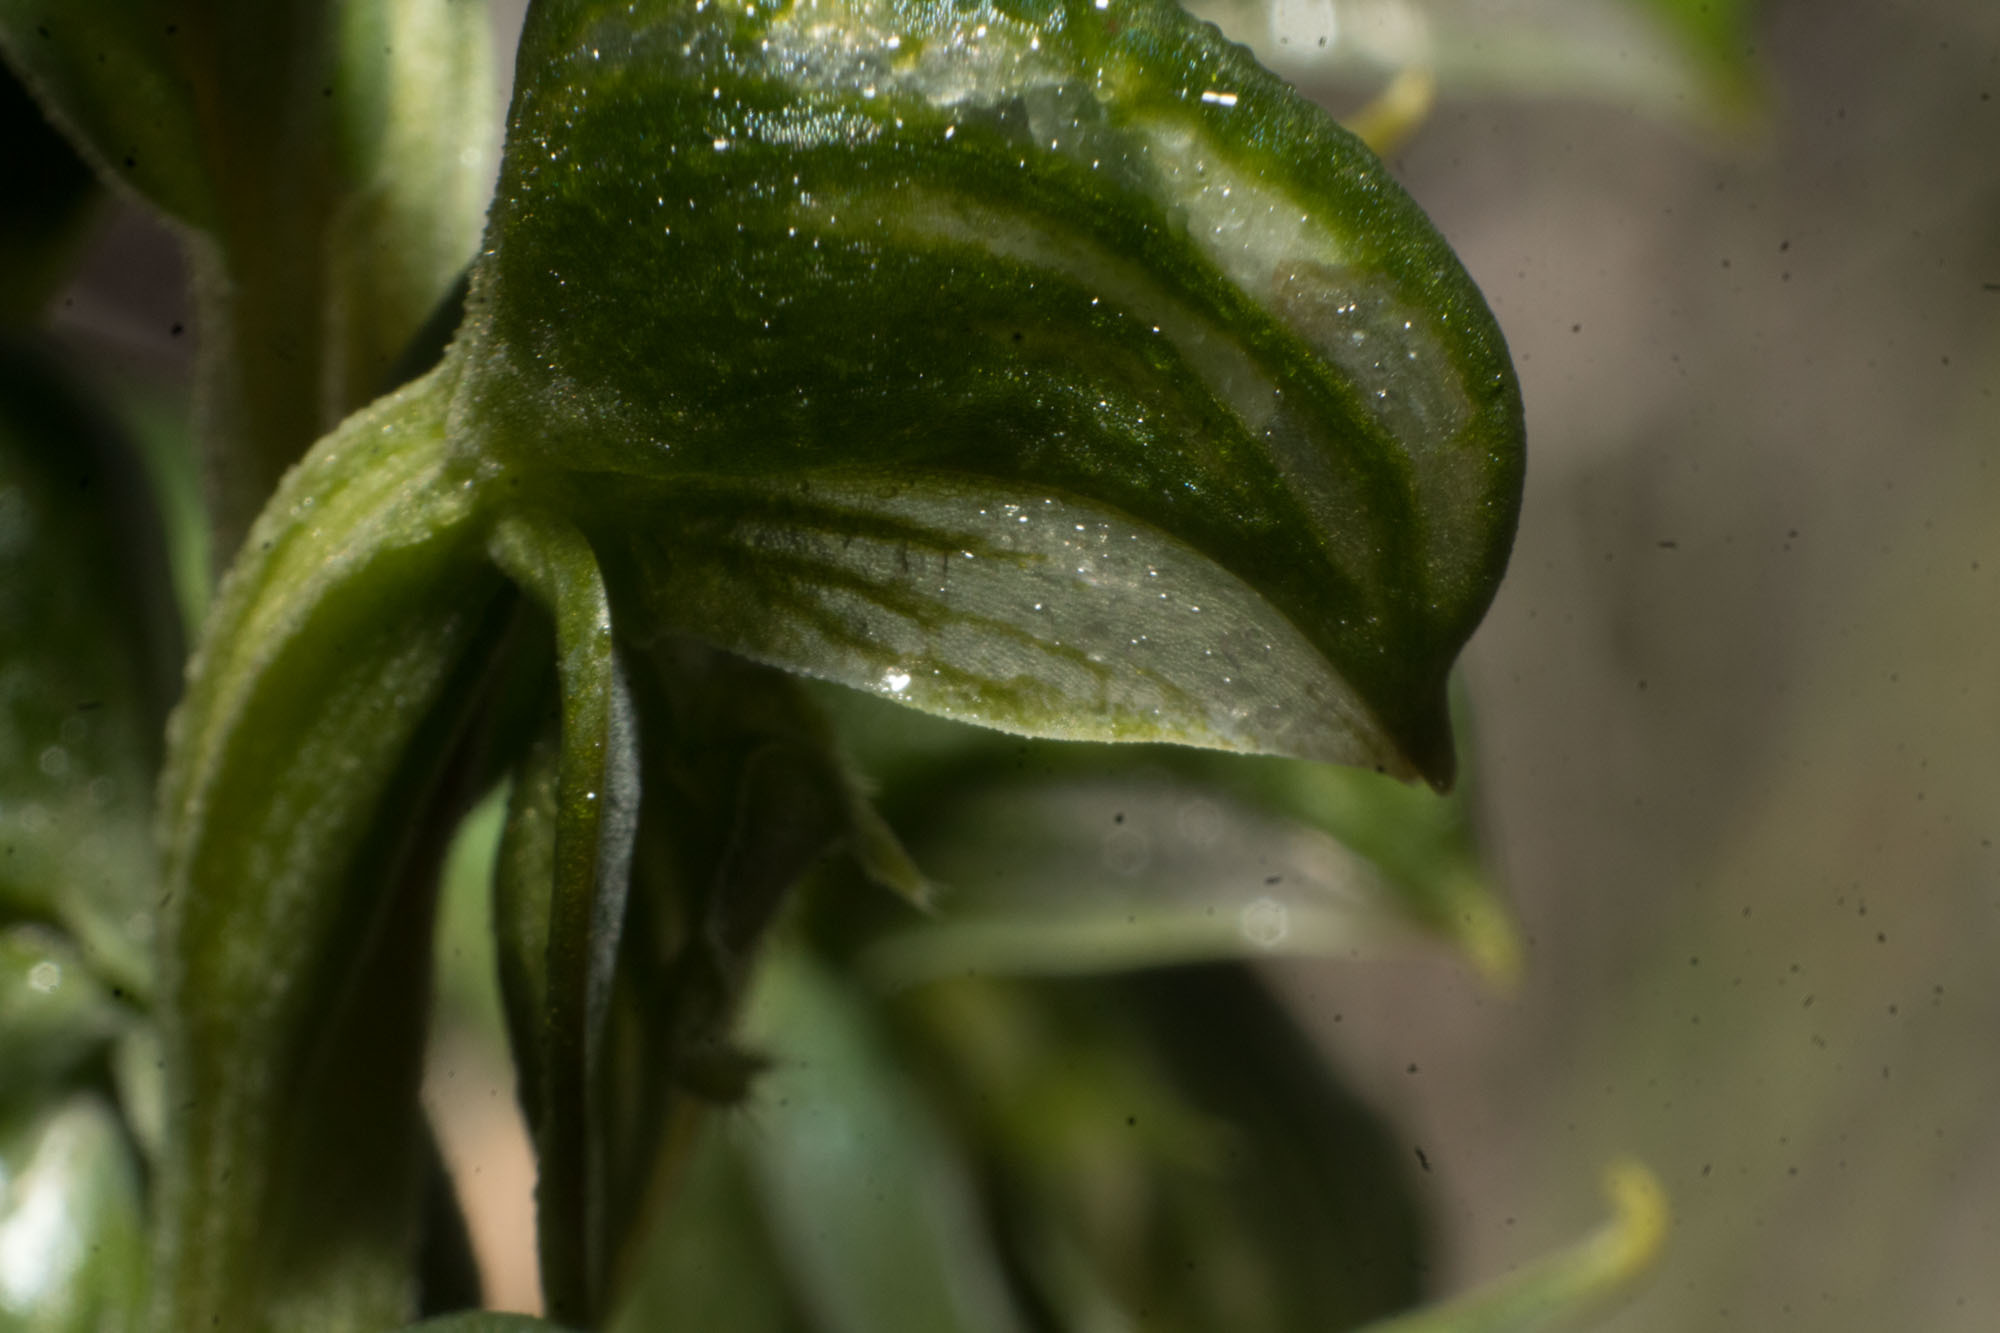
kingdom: Plantae
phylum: Tracheophyta
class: Liliopsida
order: Asparagales
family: Orchidaceae
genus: Pterostylis
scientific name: Pterostylis vittata
